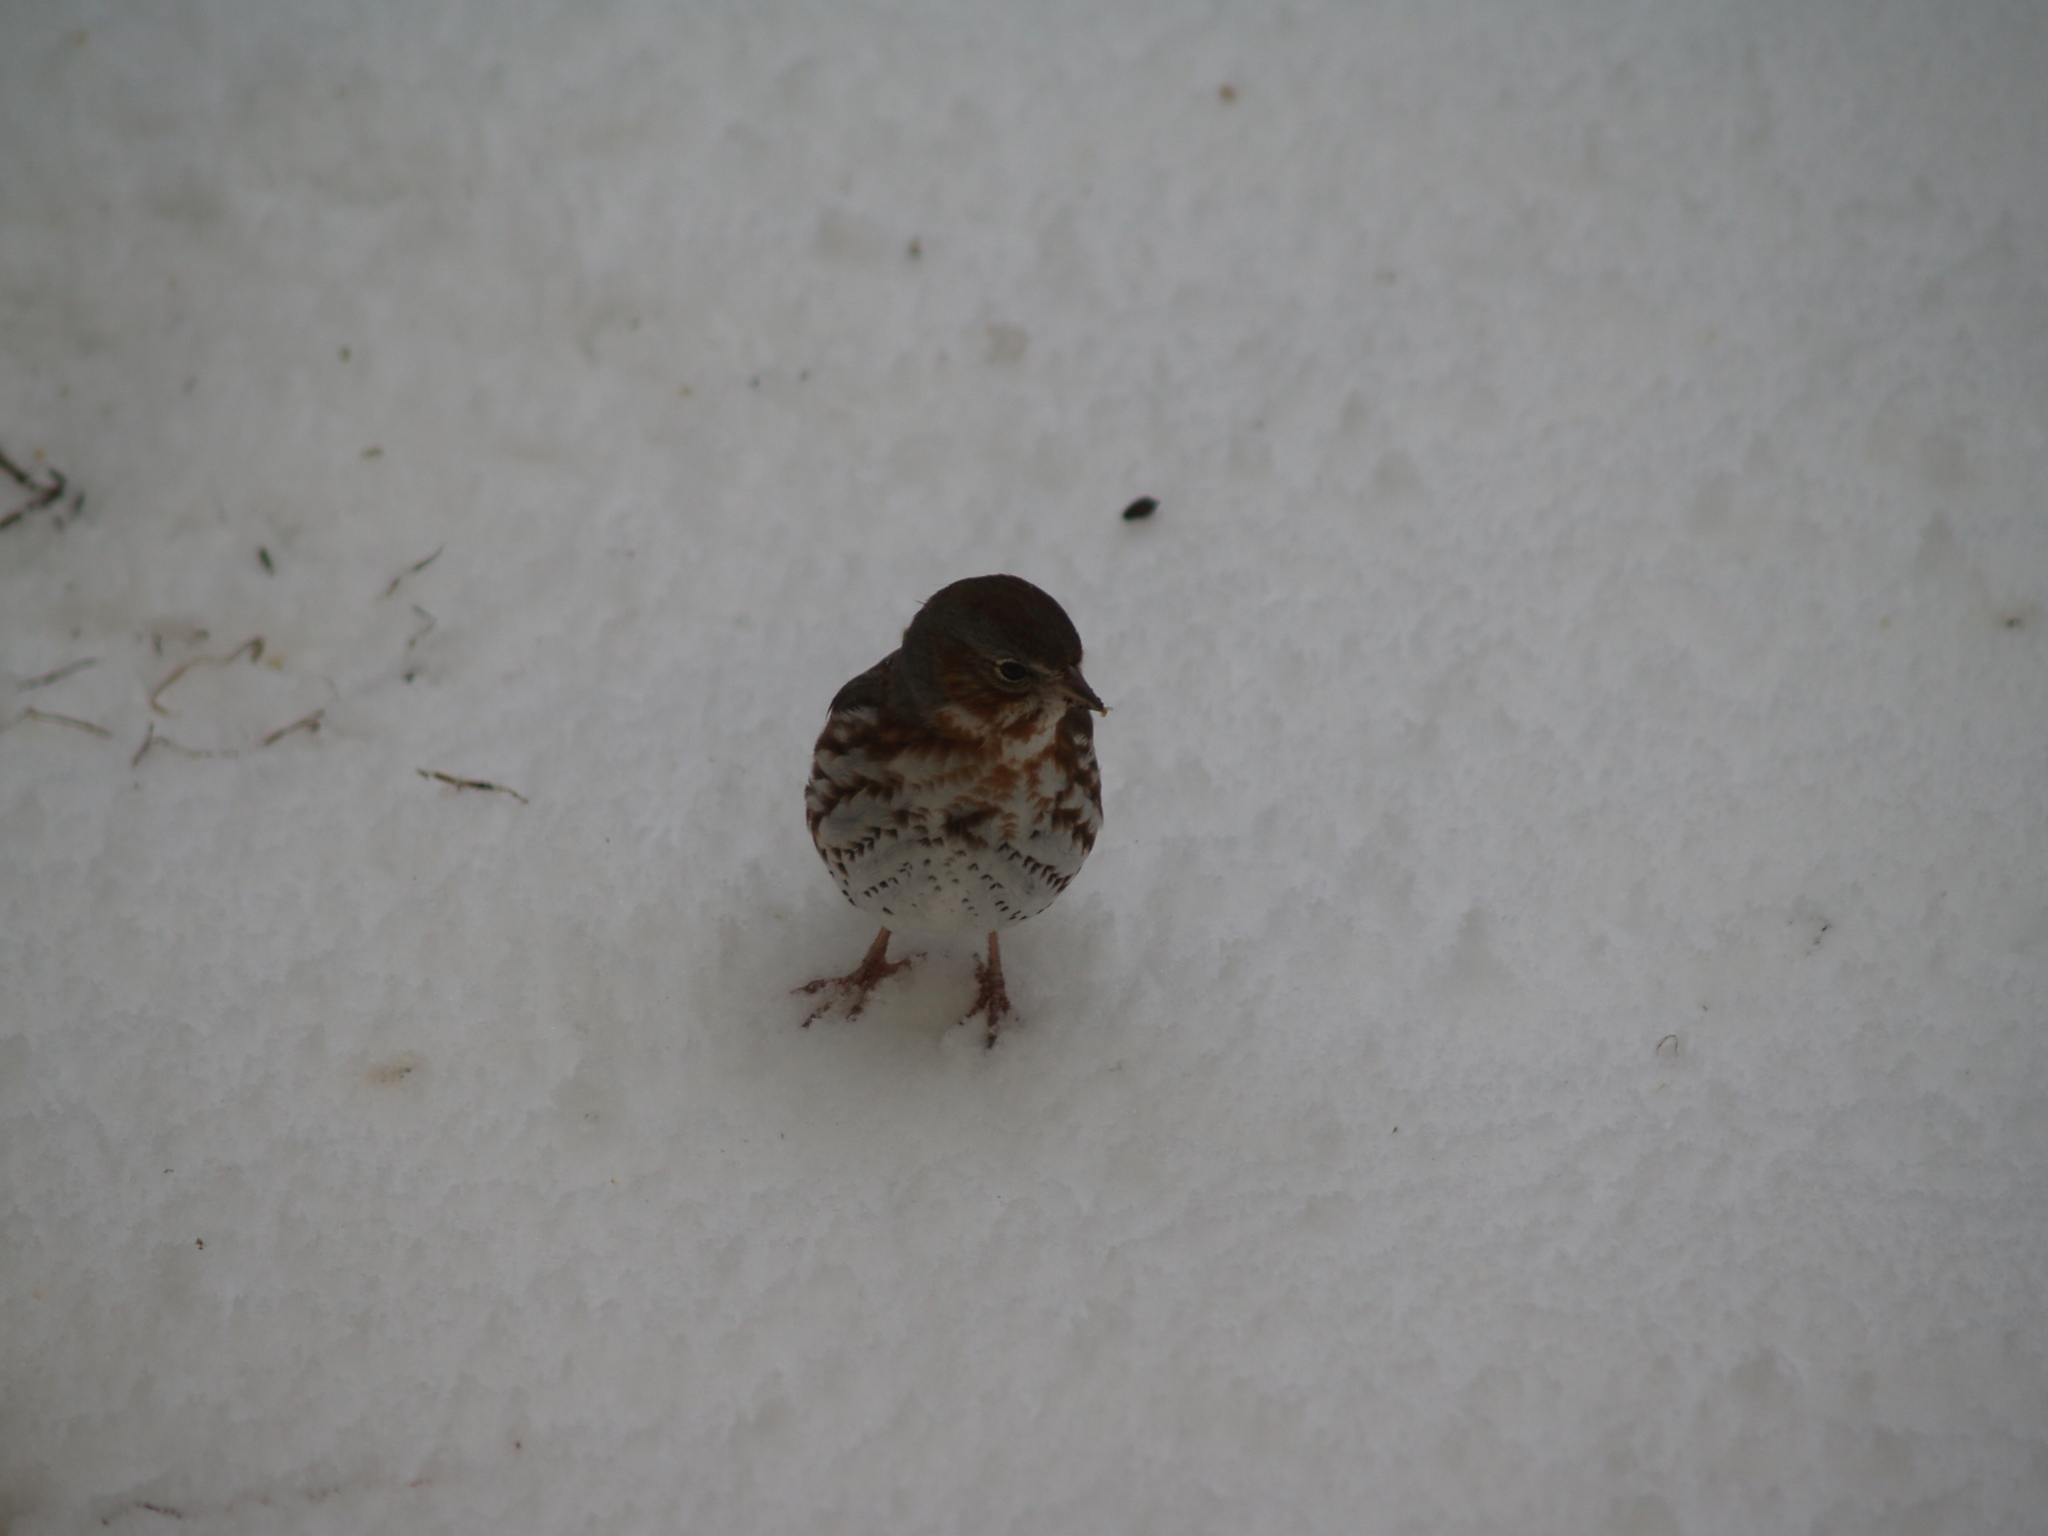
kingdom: Animalia
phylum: Chordata
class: Aves
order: Passeriformes
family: Passerellidae
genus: Passerella
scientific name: Passerella iliaca
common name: Fox sparrow
